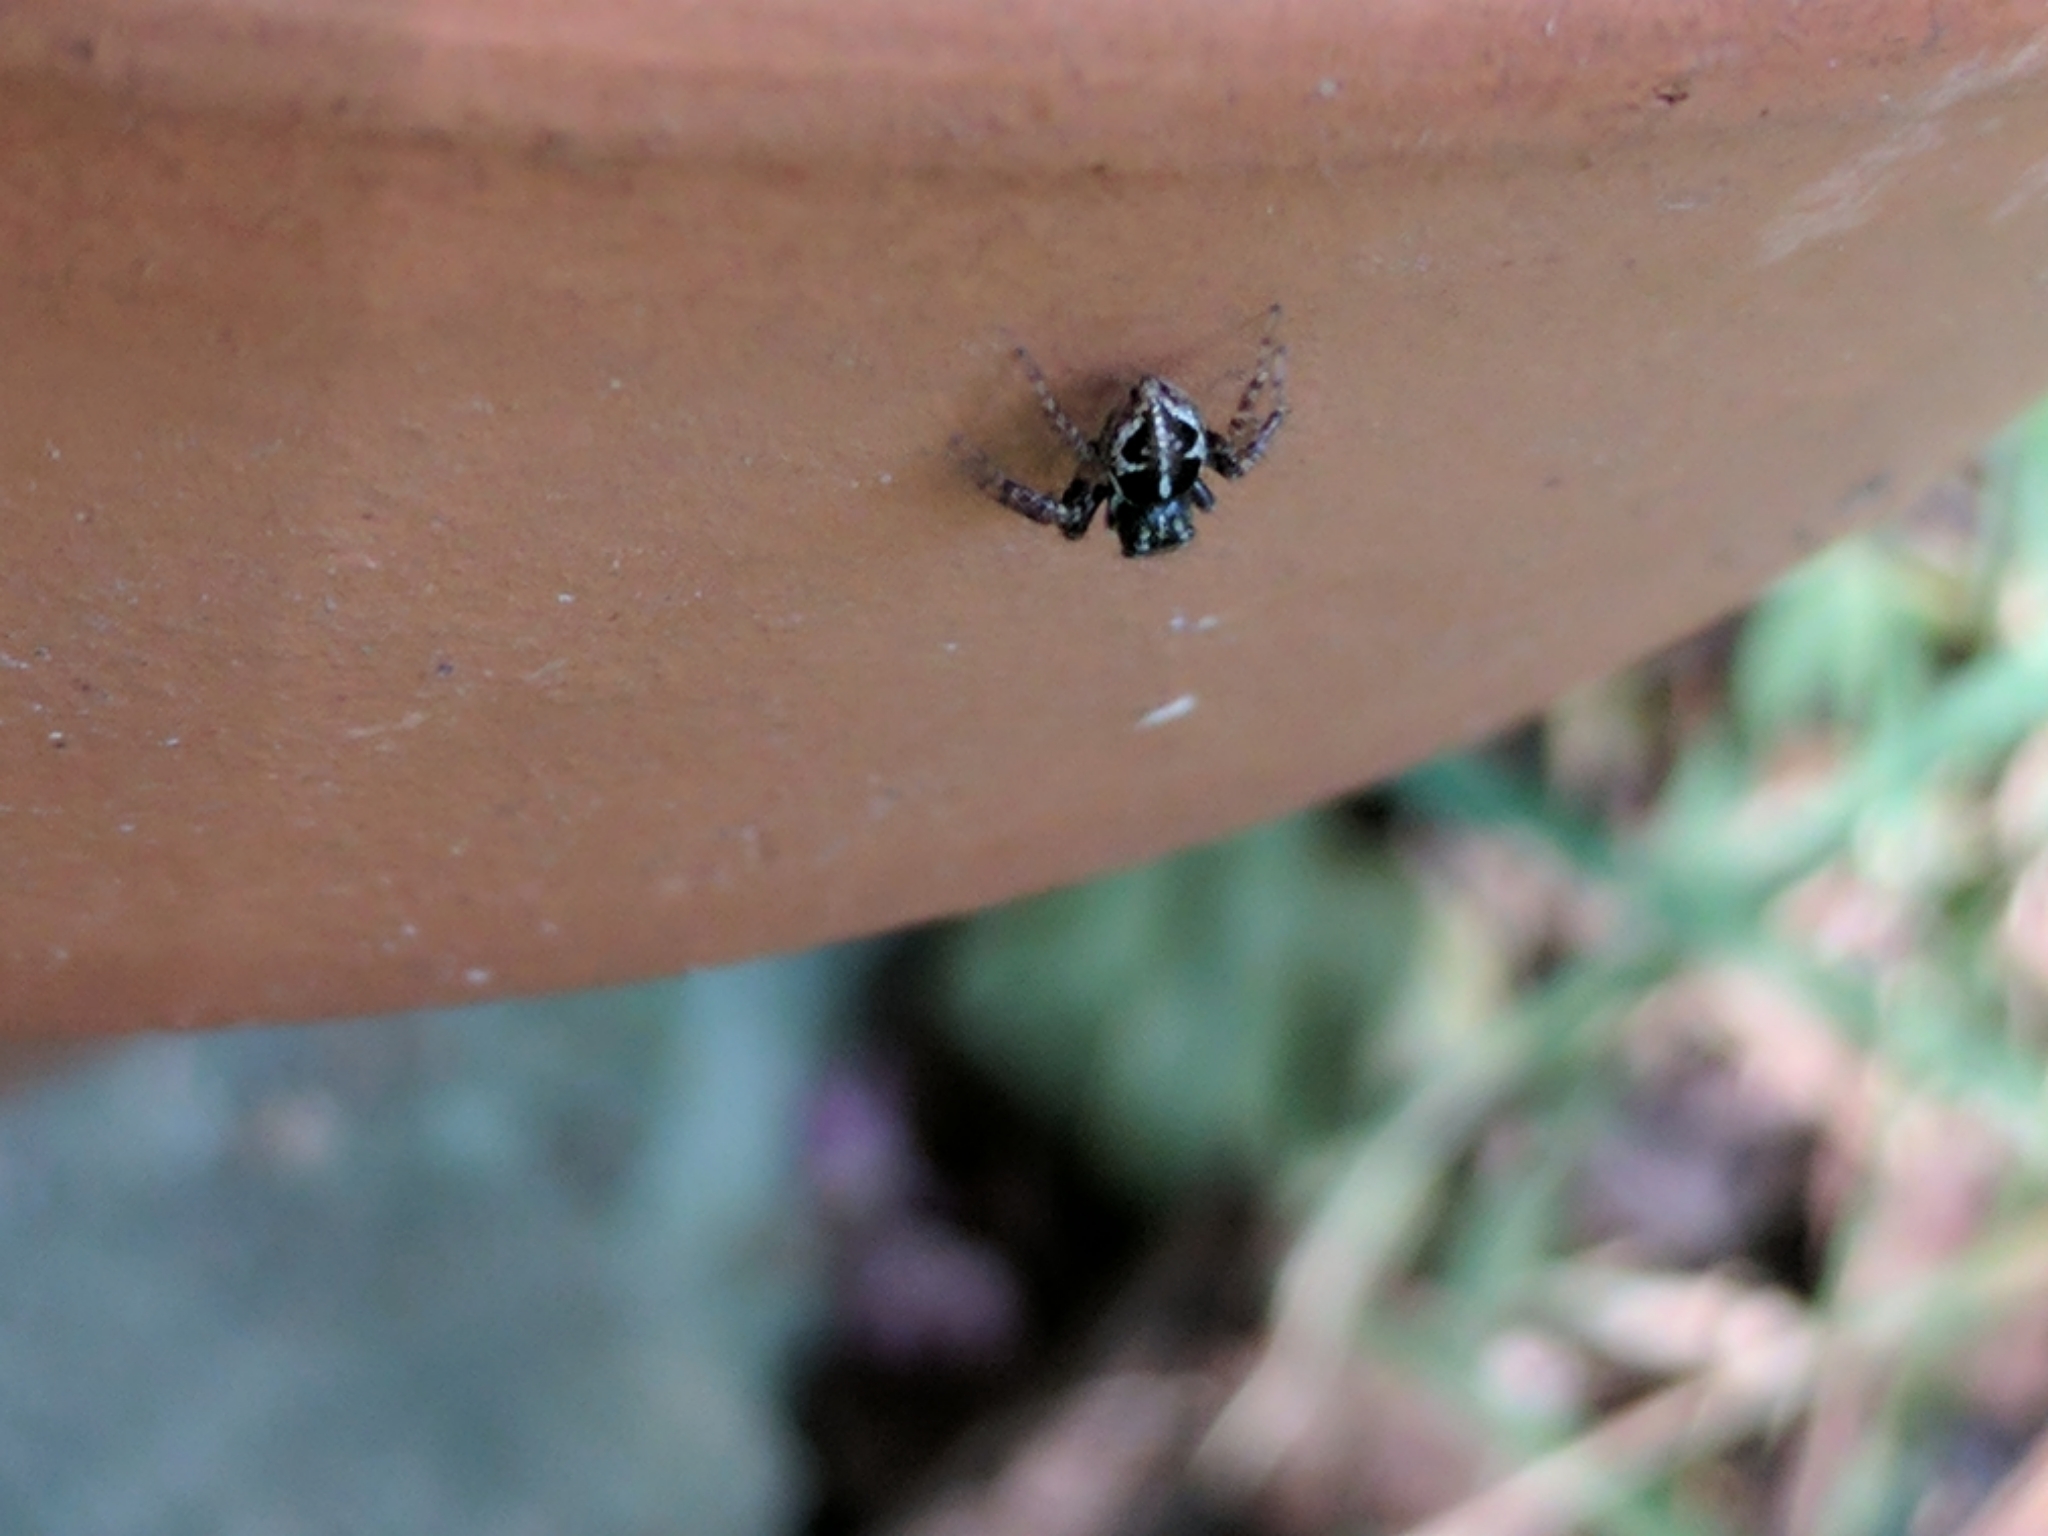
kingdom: Animalia
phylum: Arthropoda
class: Arachnida
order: Araneae
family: Salticidae
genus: Anasaitis
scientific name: Anasaitis canosa
